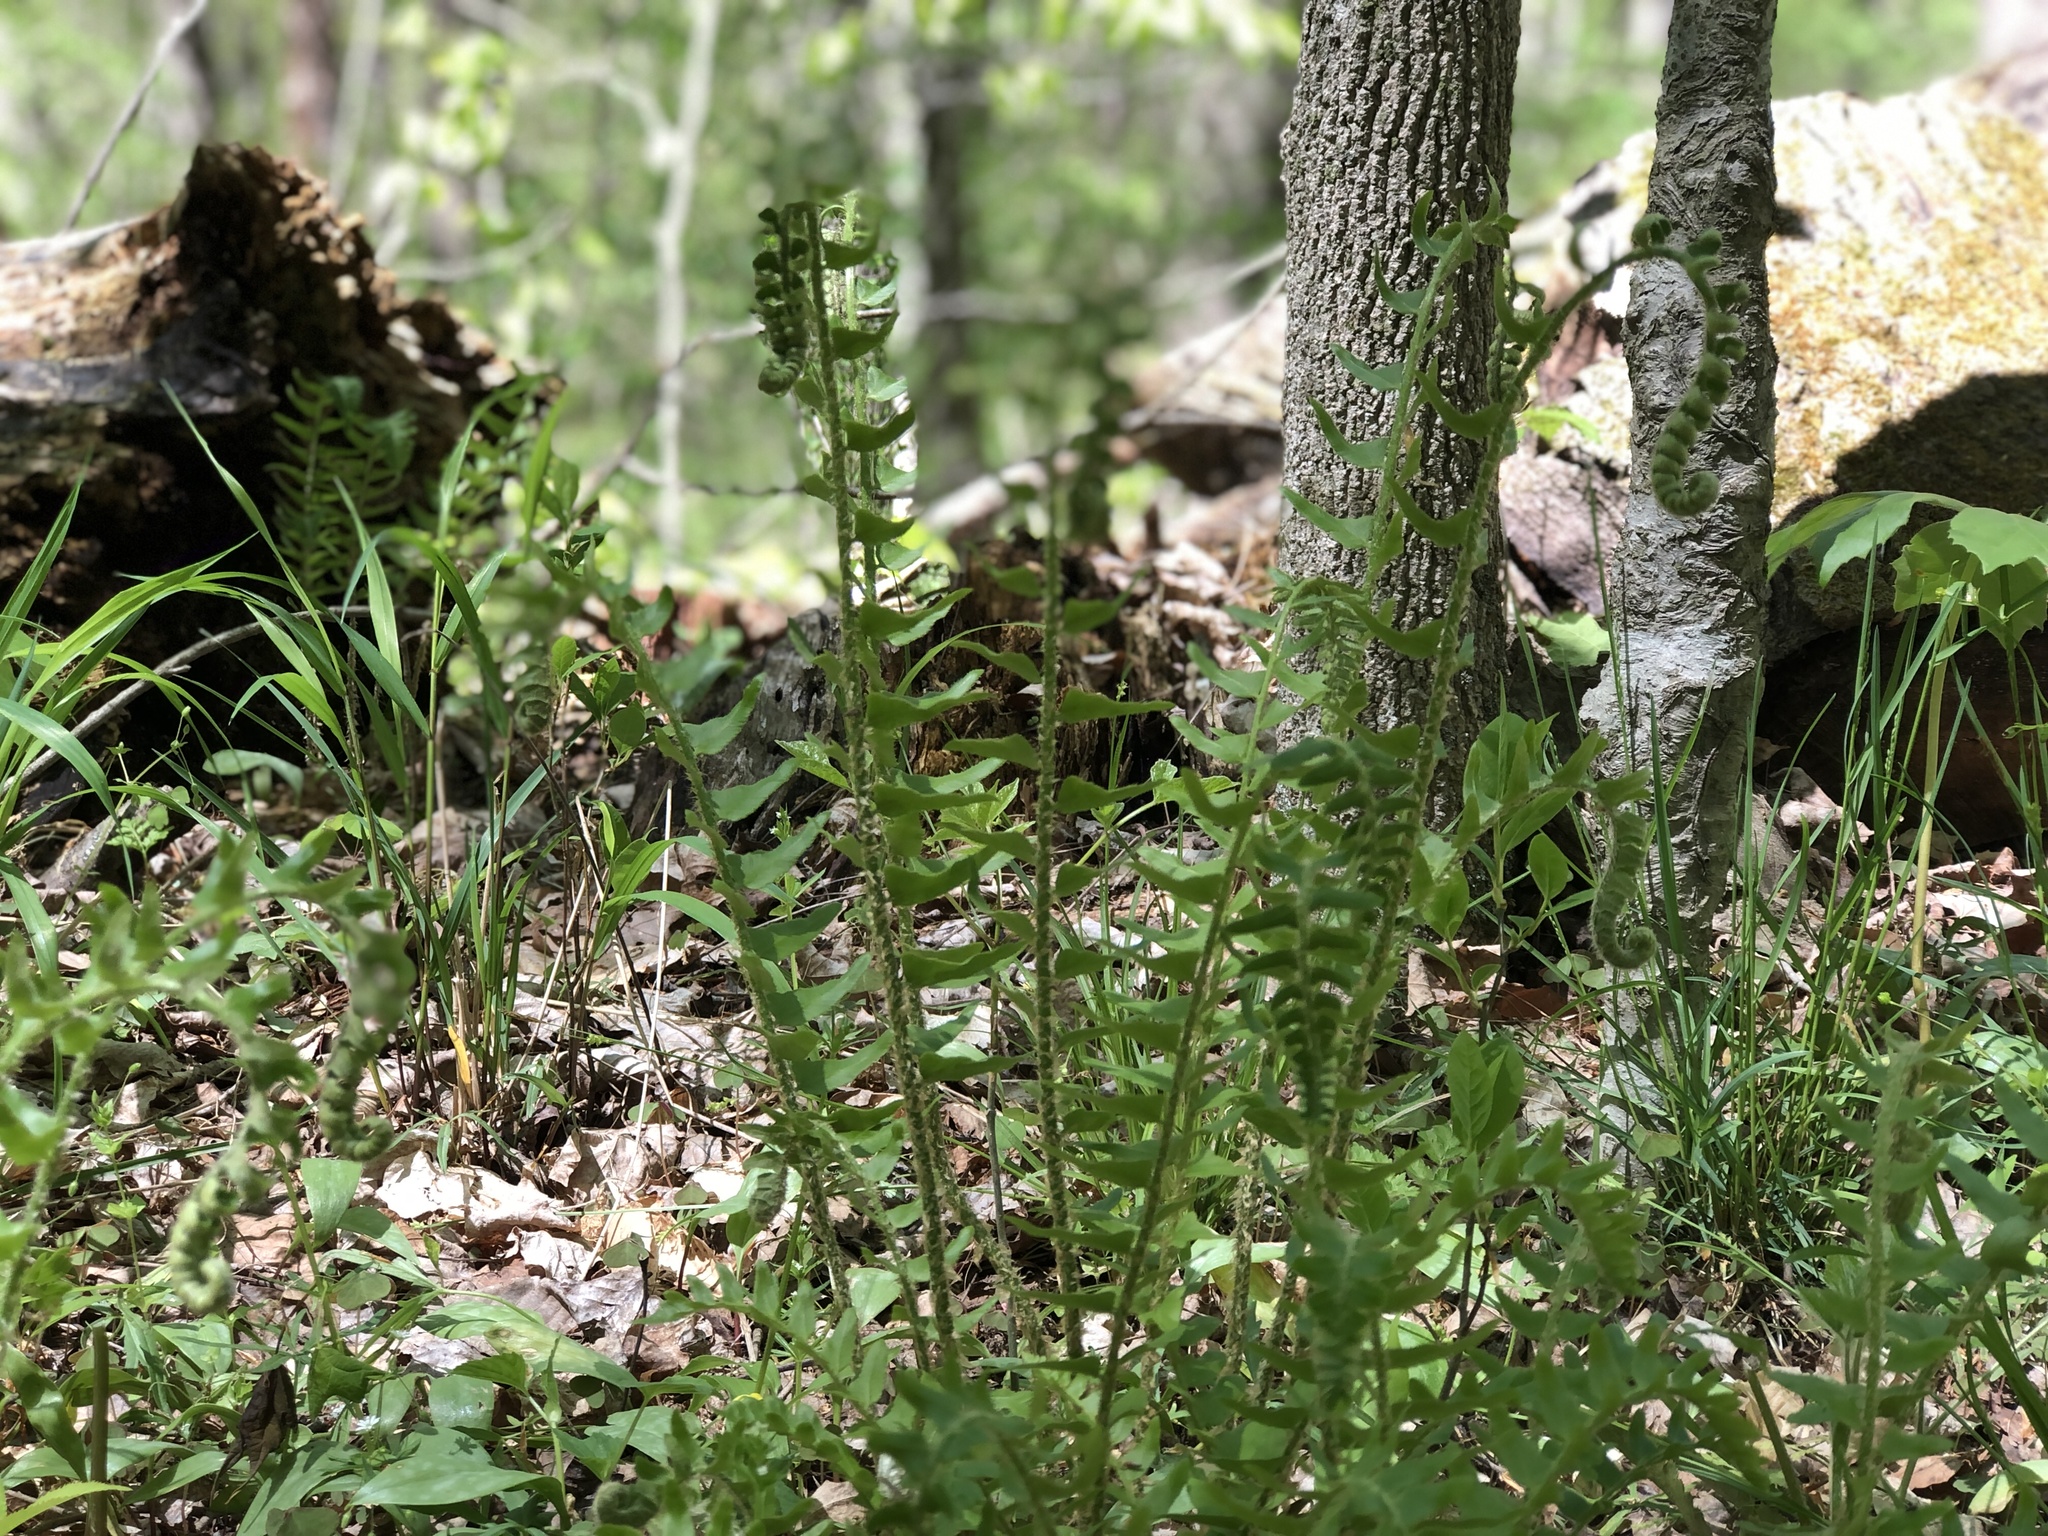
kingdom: Plantae
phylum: Tracheophyta
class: Polypodiopsida
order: Polypodiales
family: Dryopteridaceae
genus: Polystichum
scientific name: Polystichum acrostichoides
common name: Christmas fern
